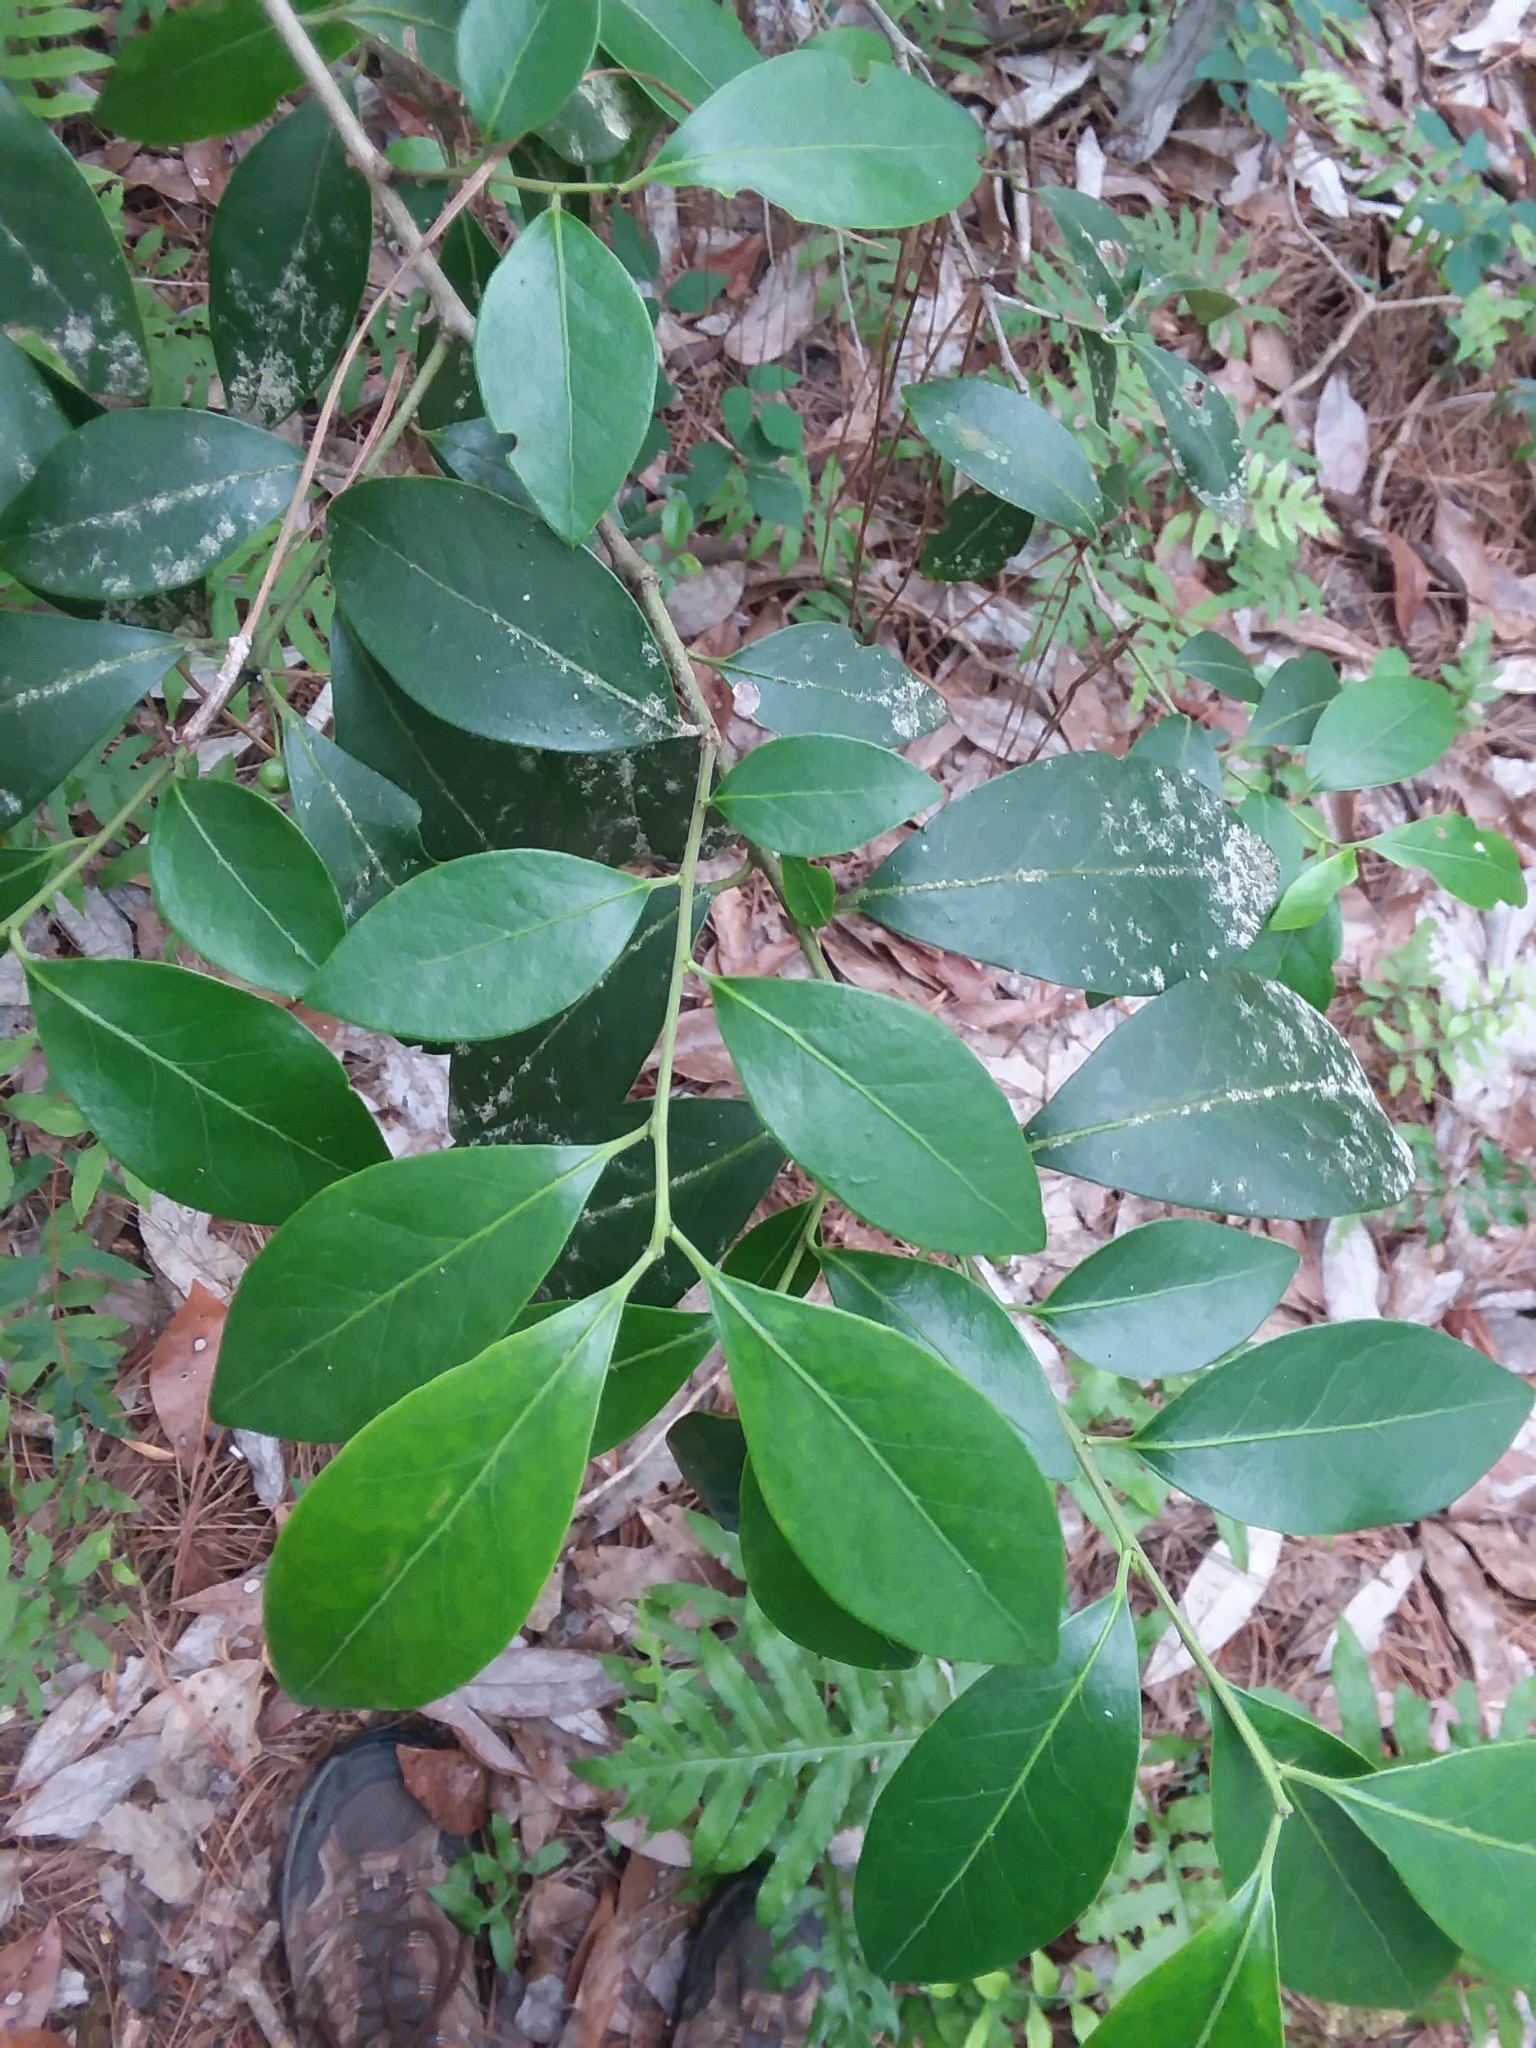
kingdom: Plantae
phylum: Tracheophyta
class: Magnoliopsida
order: Aquifoliales
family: Aquifoliaceae
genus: Ilex
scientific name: Ilex coriacea
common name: Sweet gallberry
